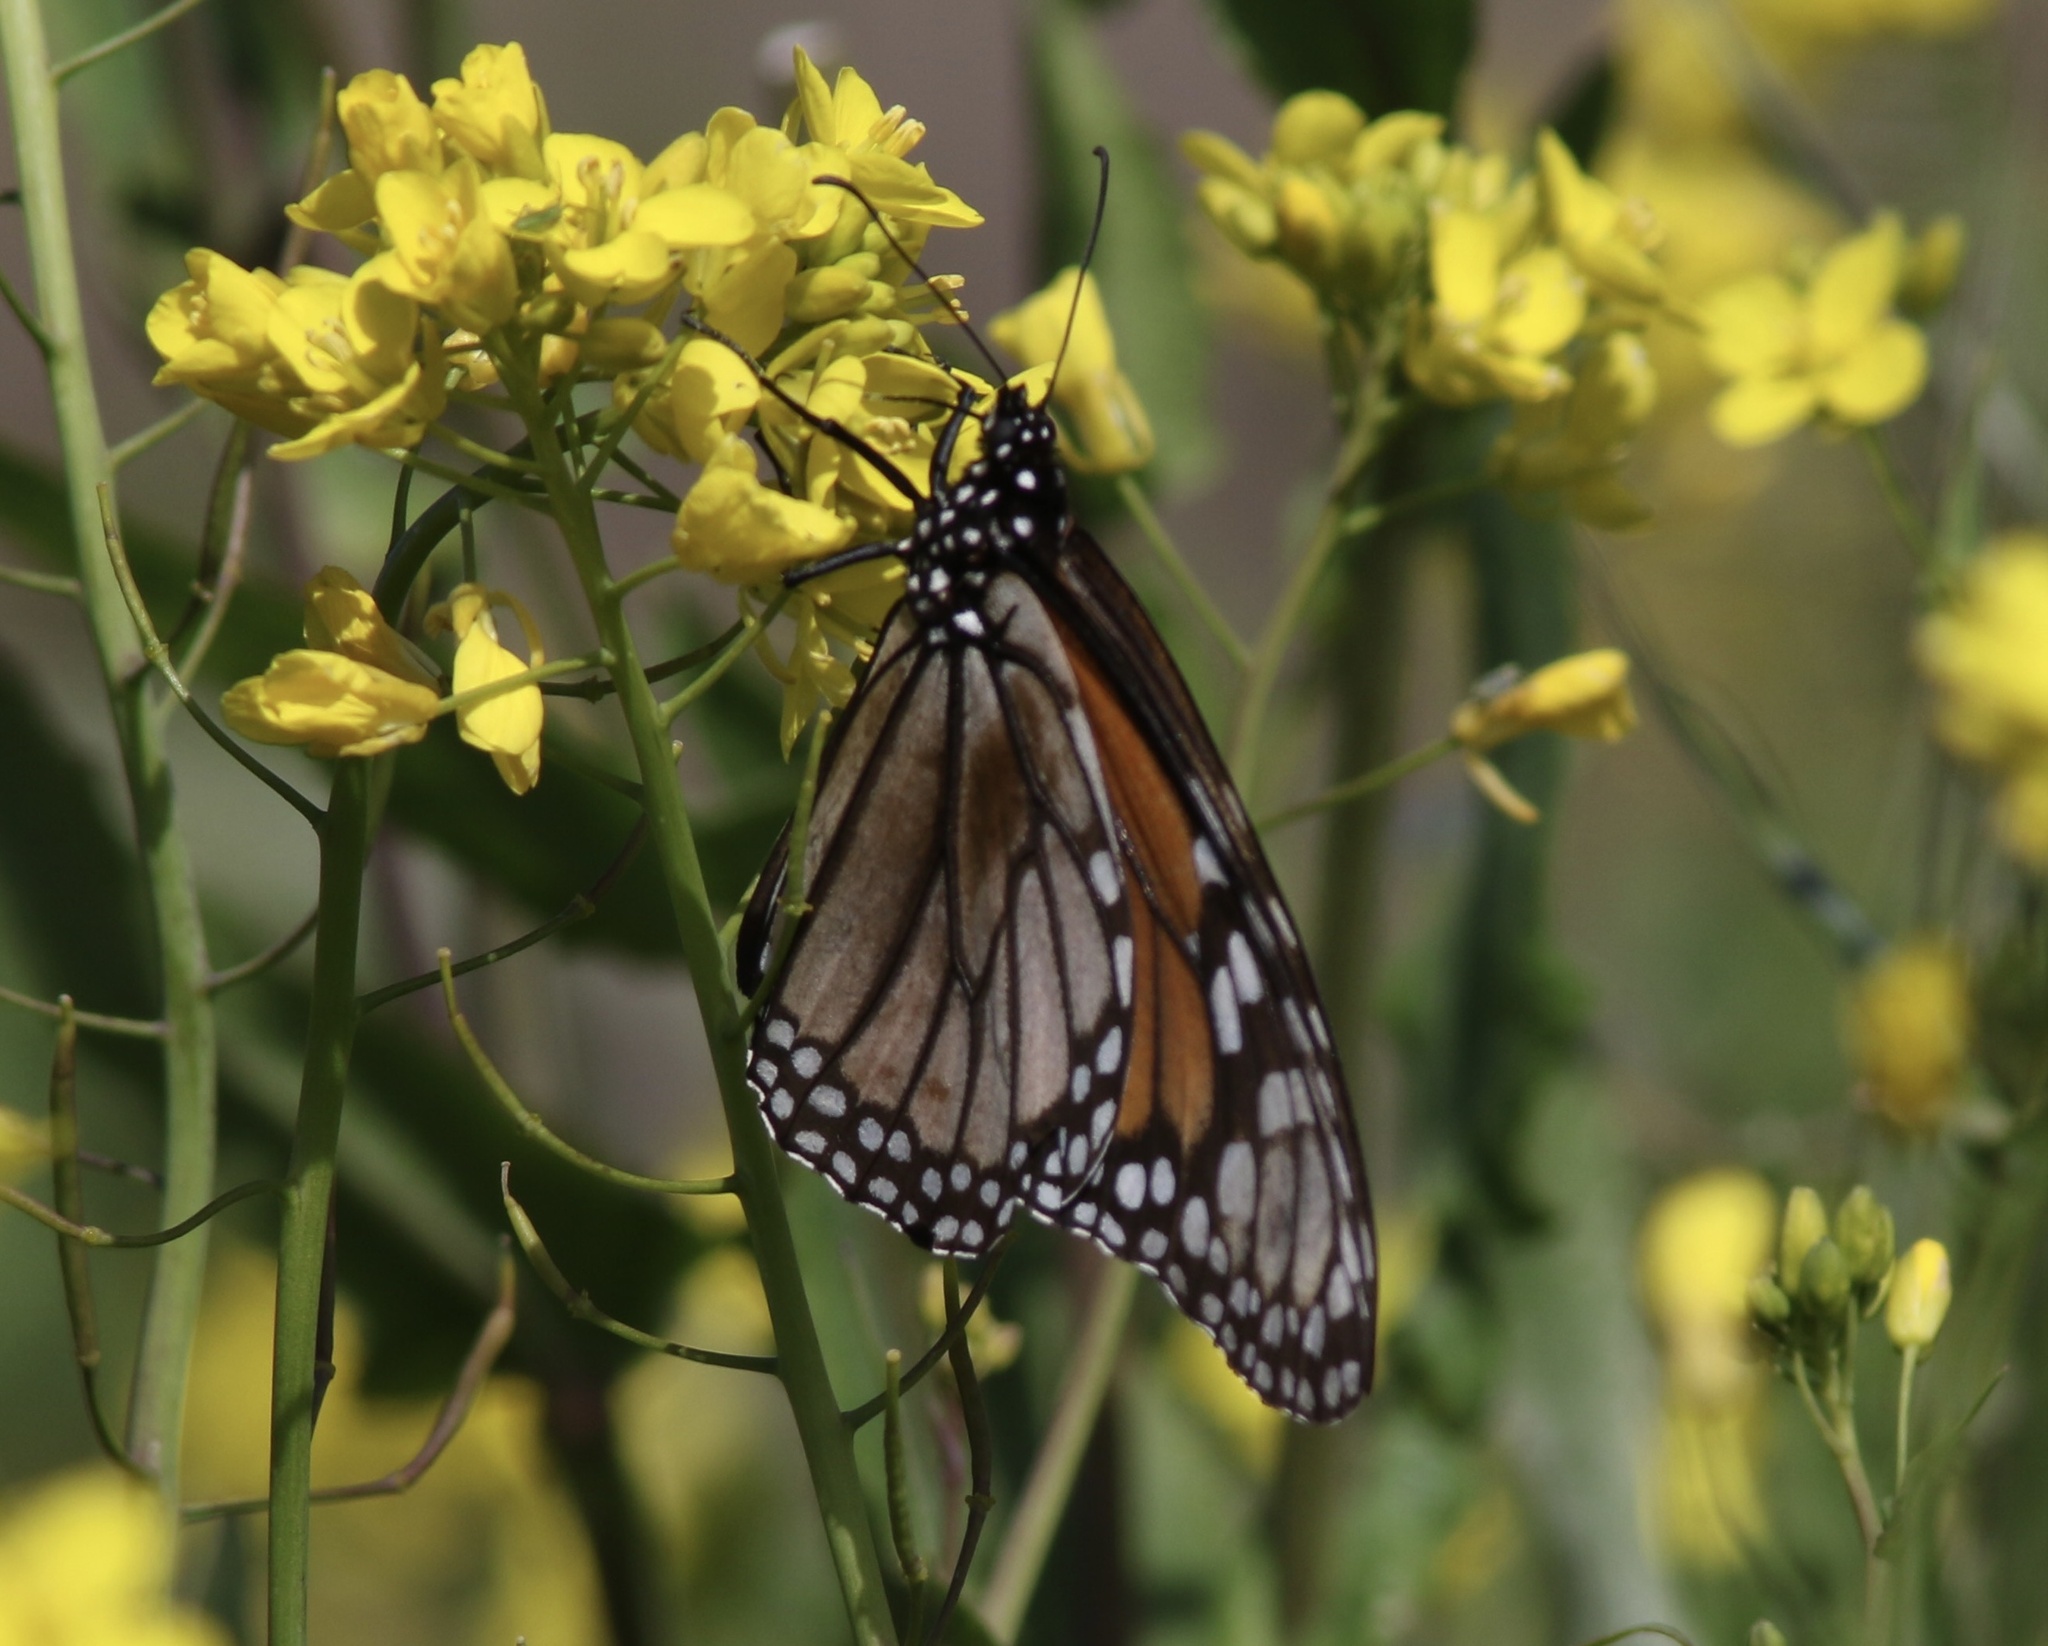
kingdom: Animalia
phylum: Arthropoda
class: Insecta
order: Lepidoptera
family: Nymphalidae
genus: Danaus
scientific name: Danaus plexippus
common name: Monarch
